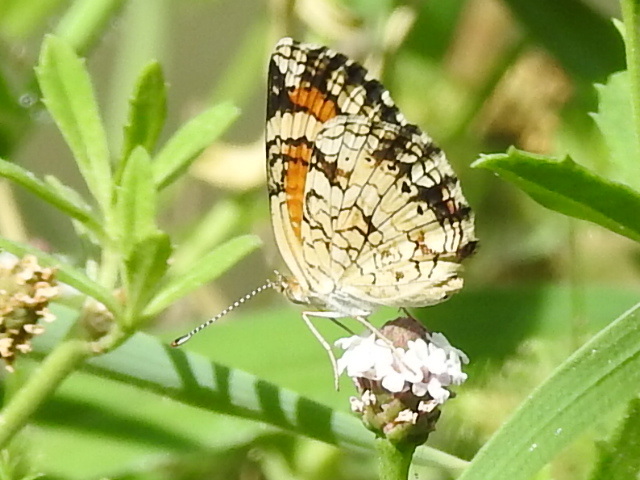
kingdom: Animalia
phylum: Arthropoda
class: Insecta
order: Lepidoptera
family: Nymphalidae
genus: Phyciodes
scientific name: Phyciodes phaon
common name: Phaon crescent
